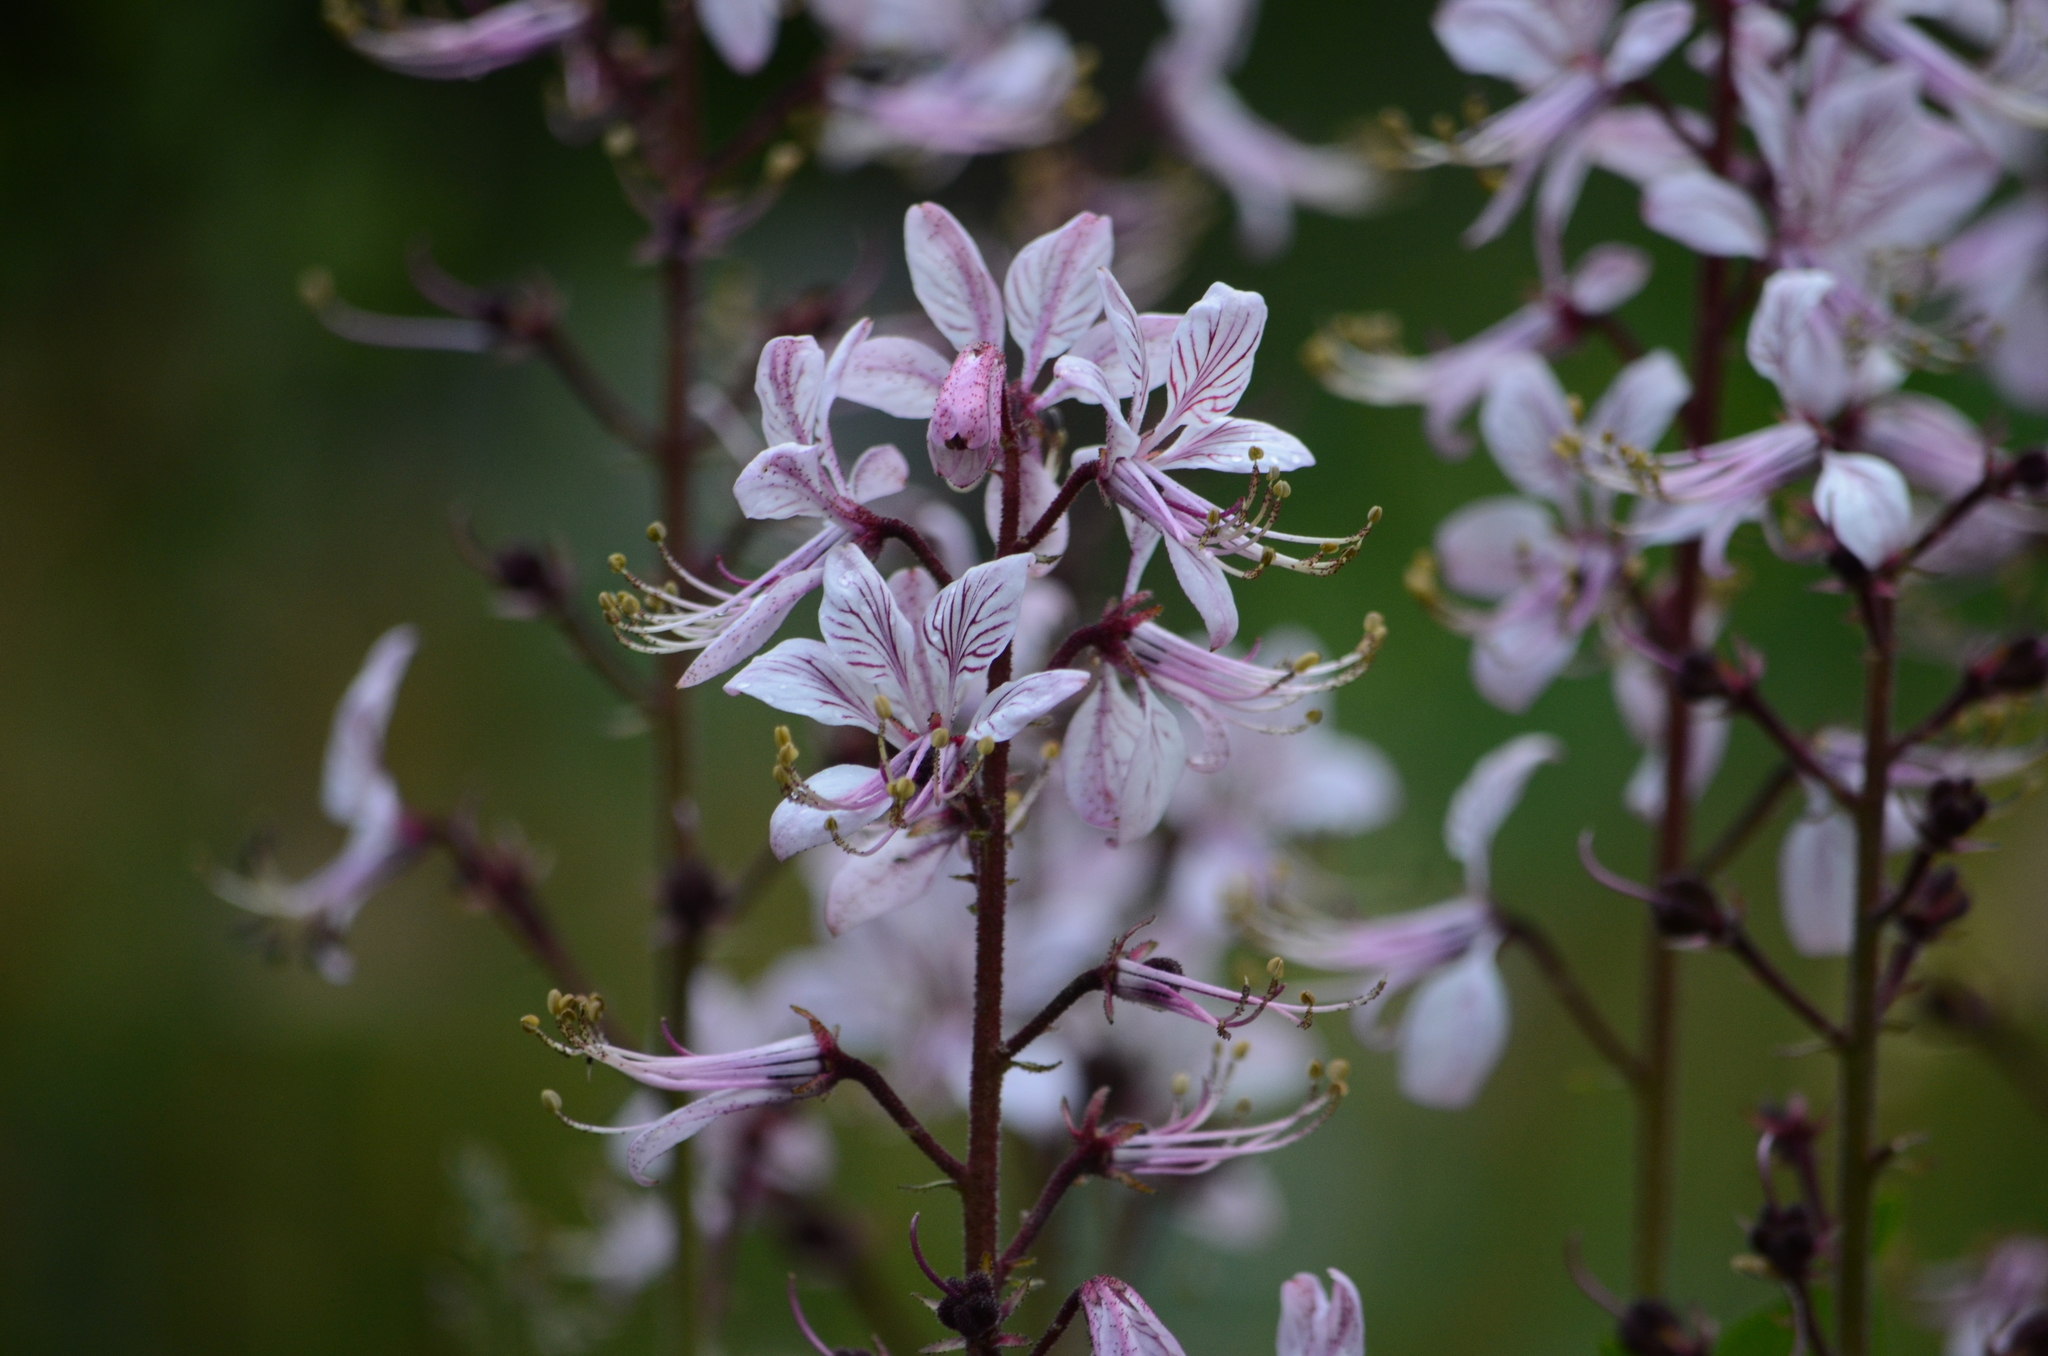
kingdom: Plantae
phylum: Tracheophyta
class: Magnoliopsida
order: Sapindales
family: Rutaceae
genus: Dictamnus
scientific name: Dictamnus albus
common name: Gasplant
